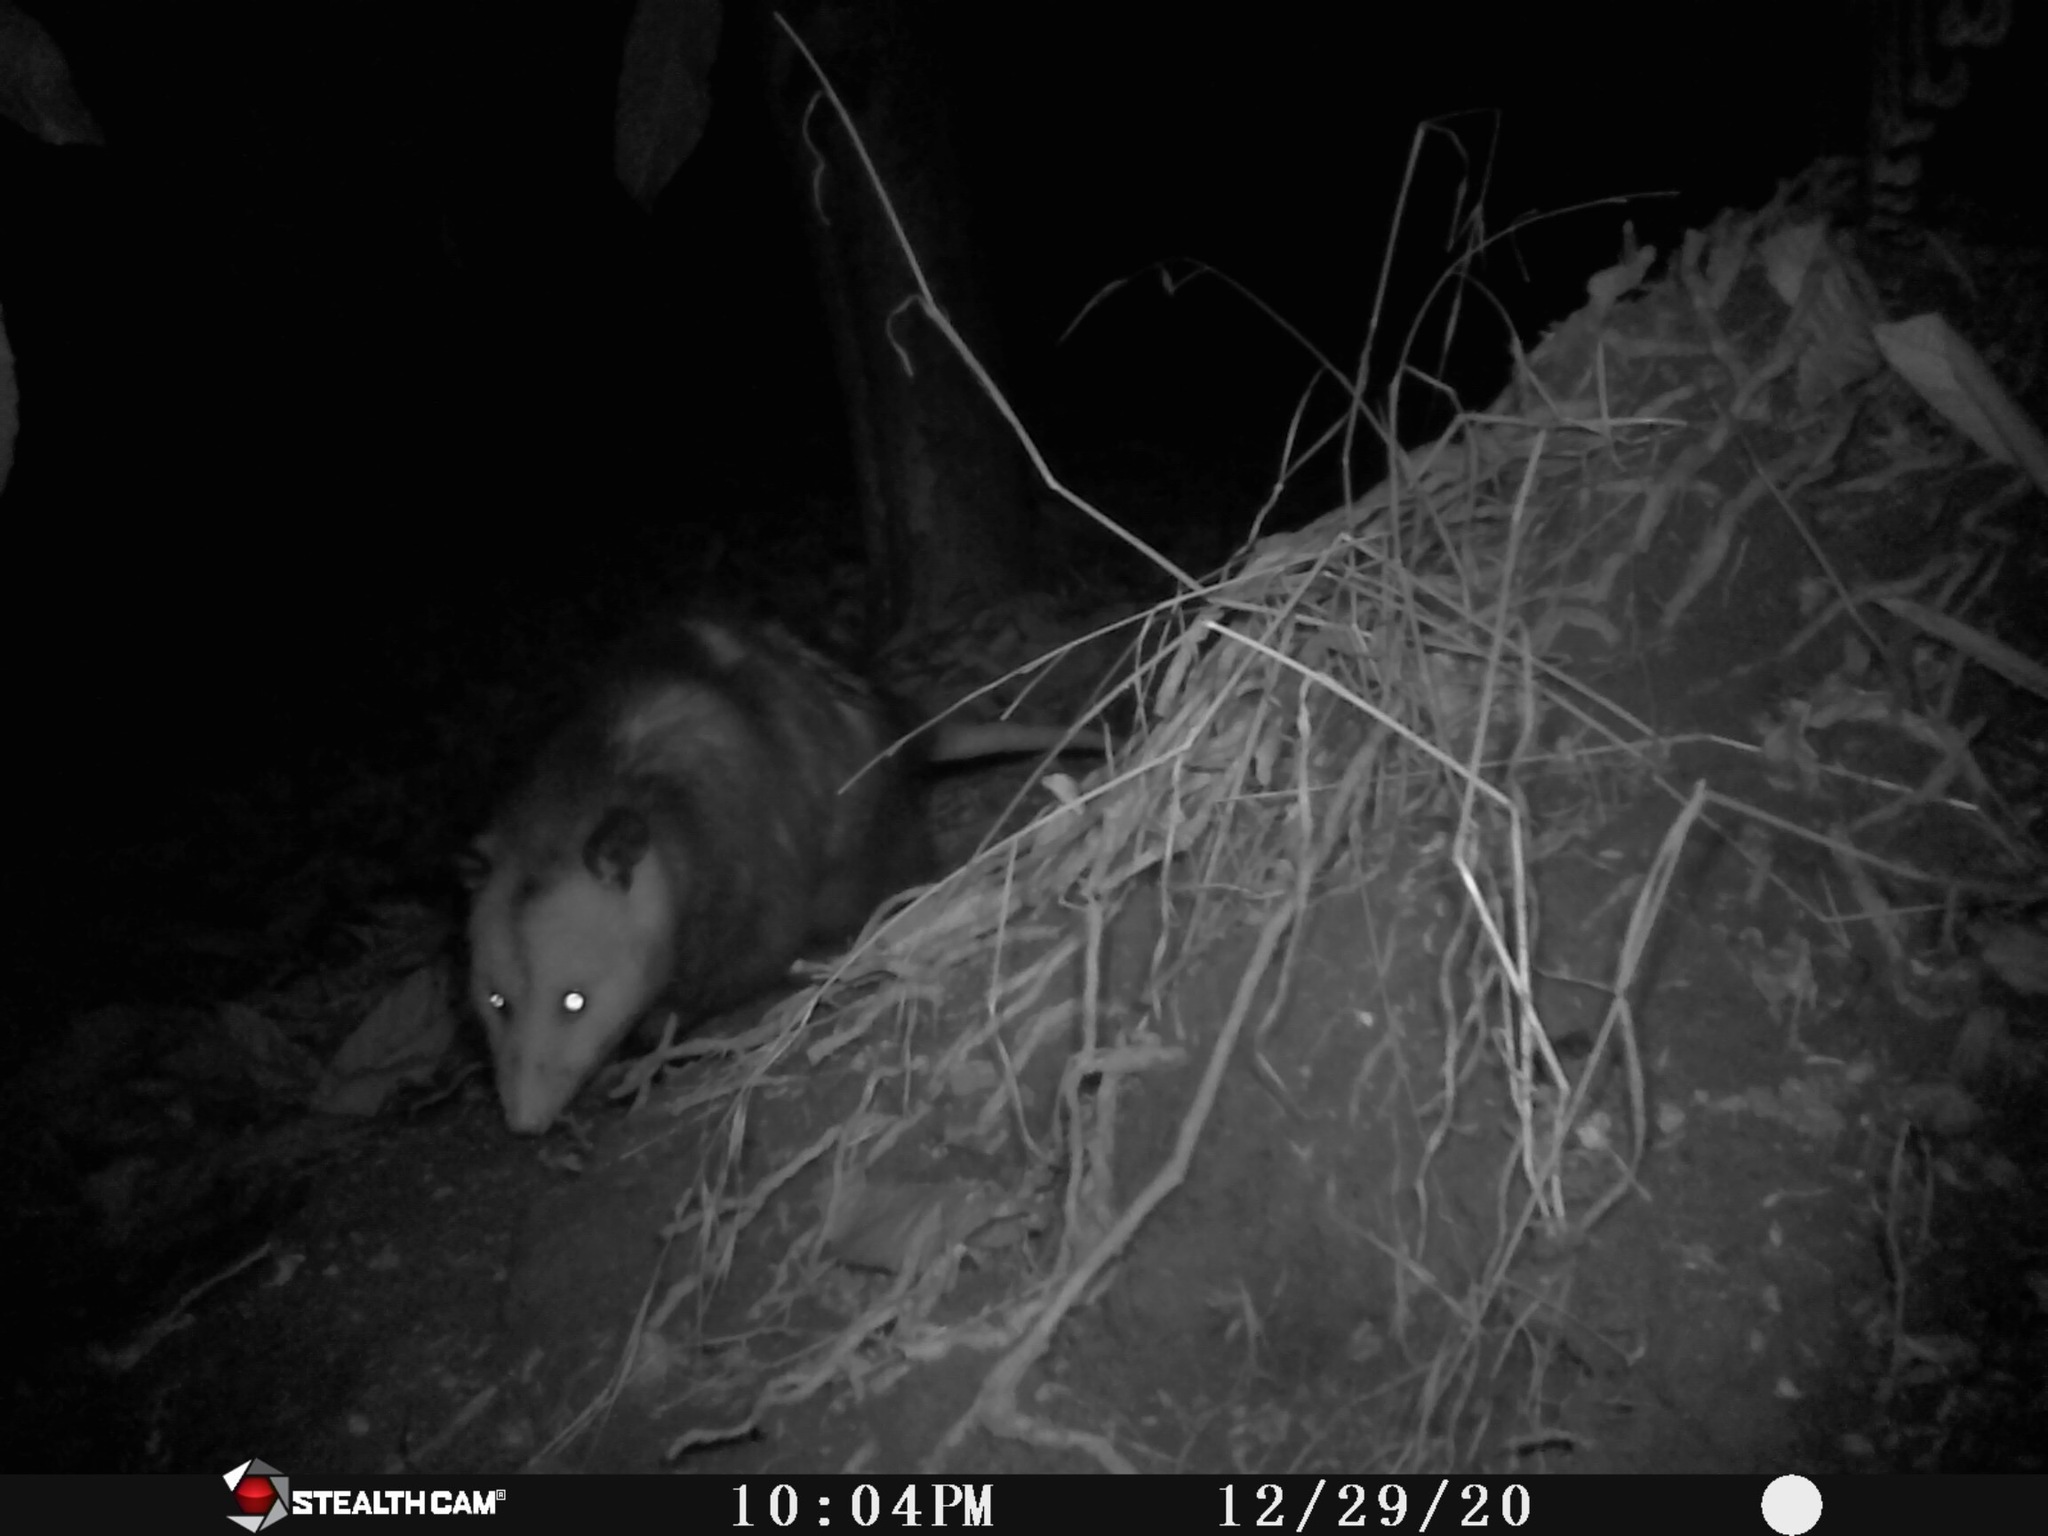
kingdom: Animalia
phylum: Chordata
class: Mammalia
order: Didelphimorphia
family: Didelphidae
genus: Didelphis
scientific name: Didelphis virginiana
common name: Virginia opossum
